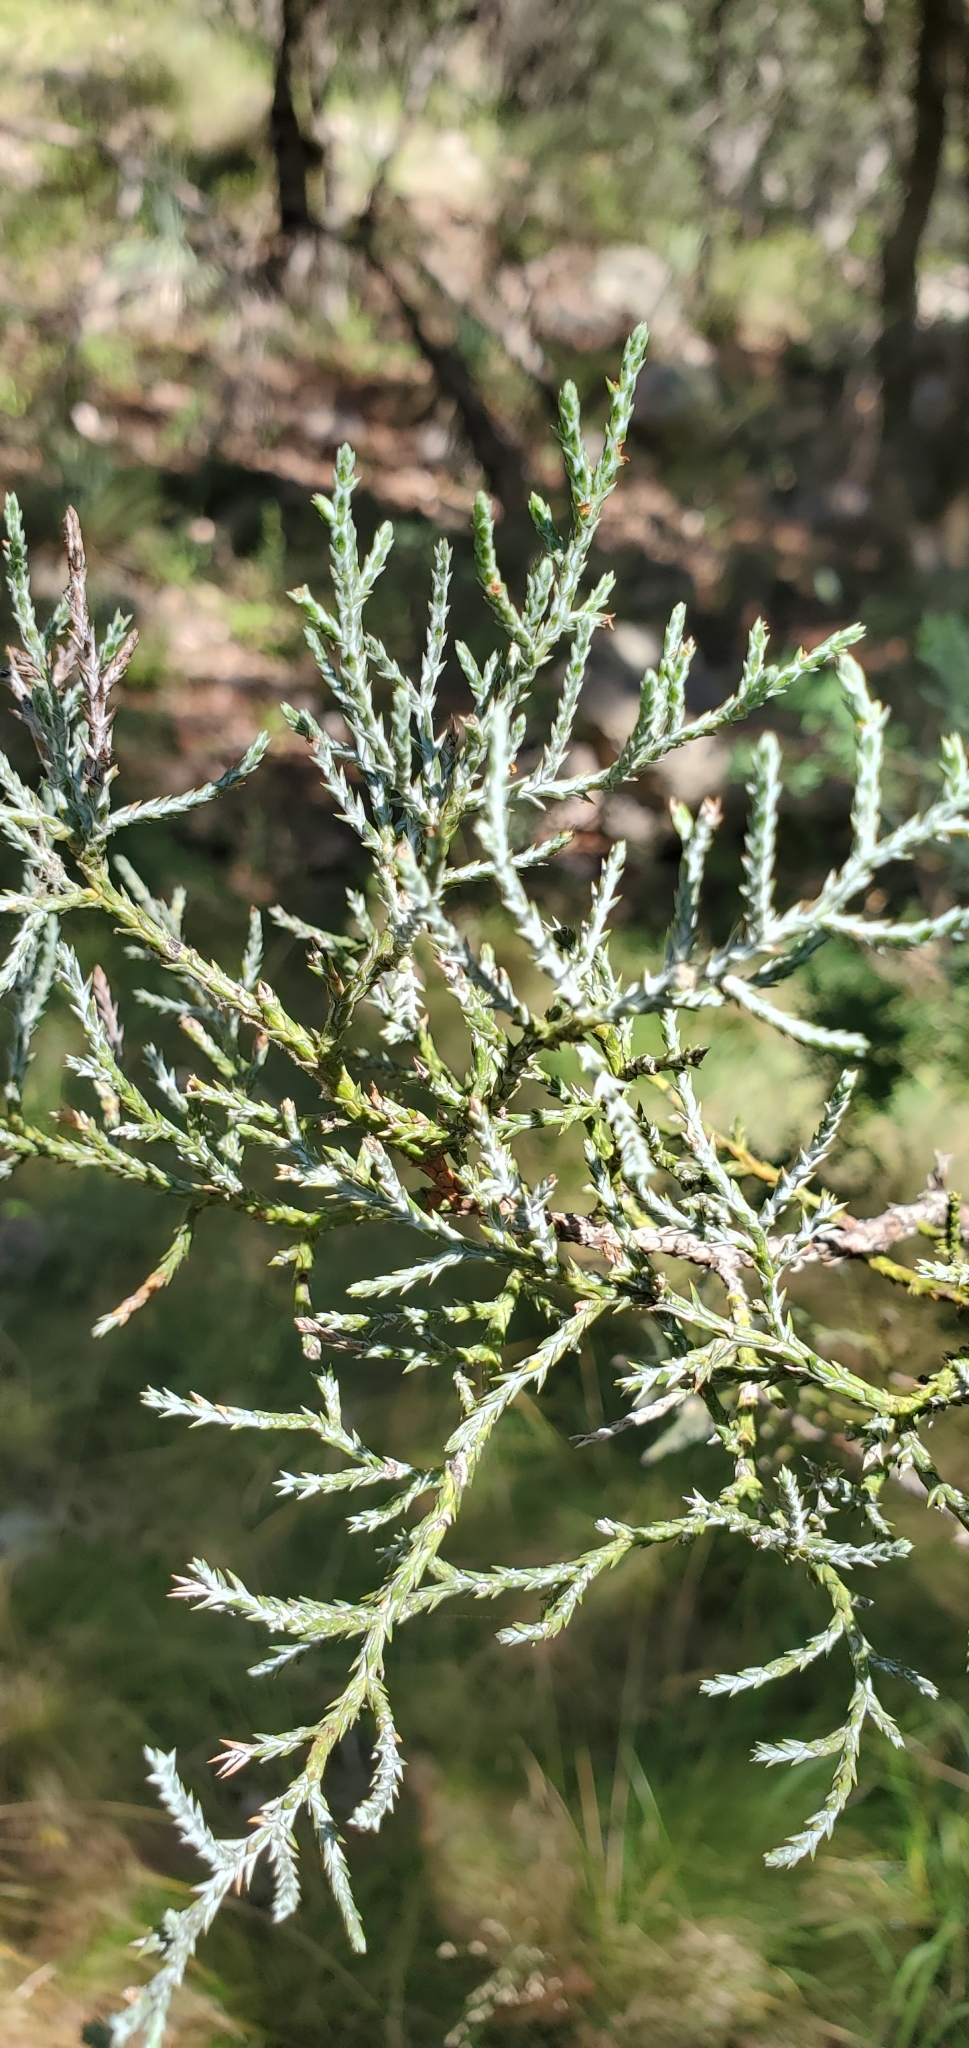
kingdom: Plantae
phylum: Tracheophyta
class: Pinopsida
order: Pinales
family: Cupressaceae
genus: Juniperus
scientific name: Juniperus deppeana
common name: Alligator juniper
